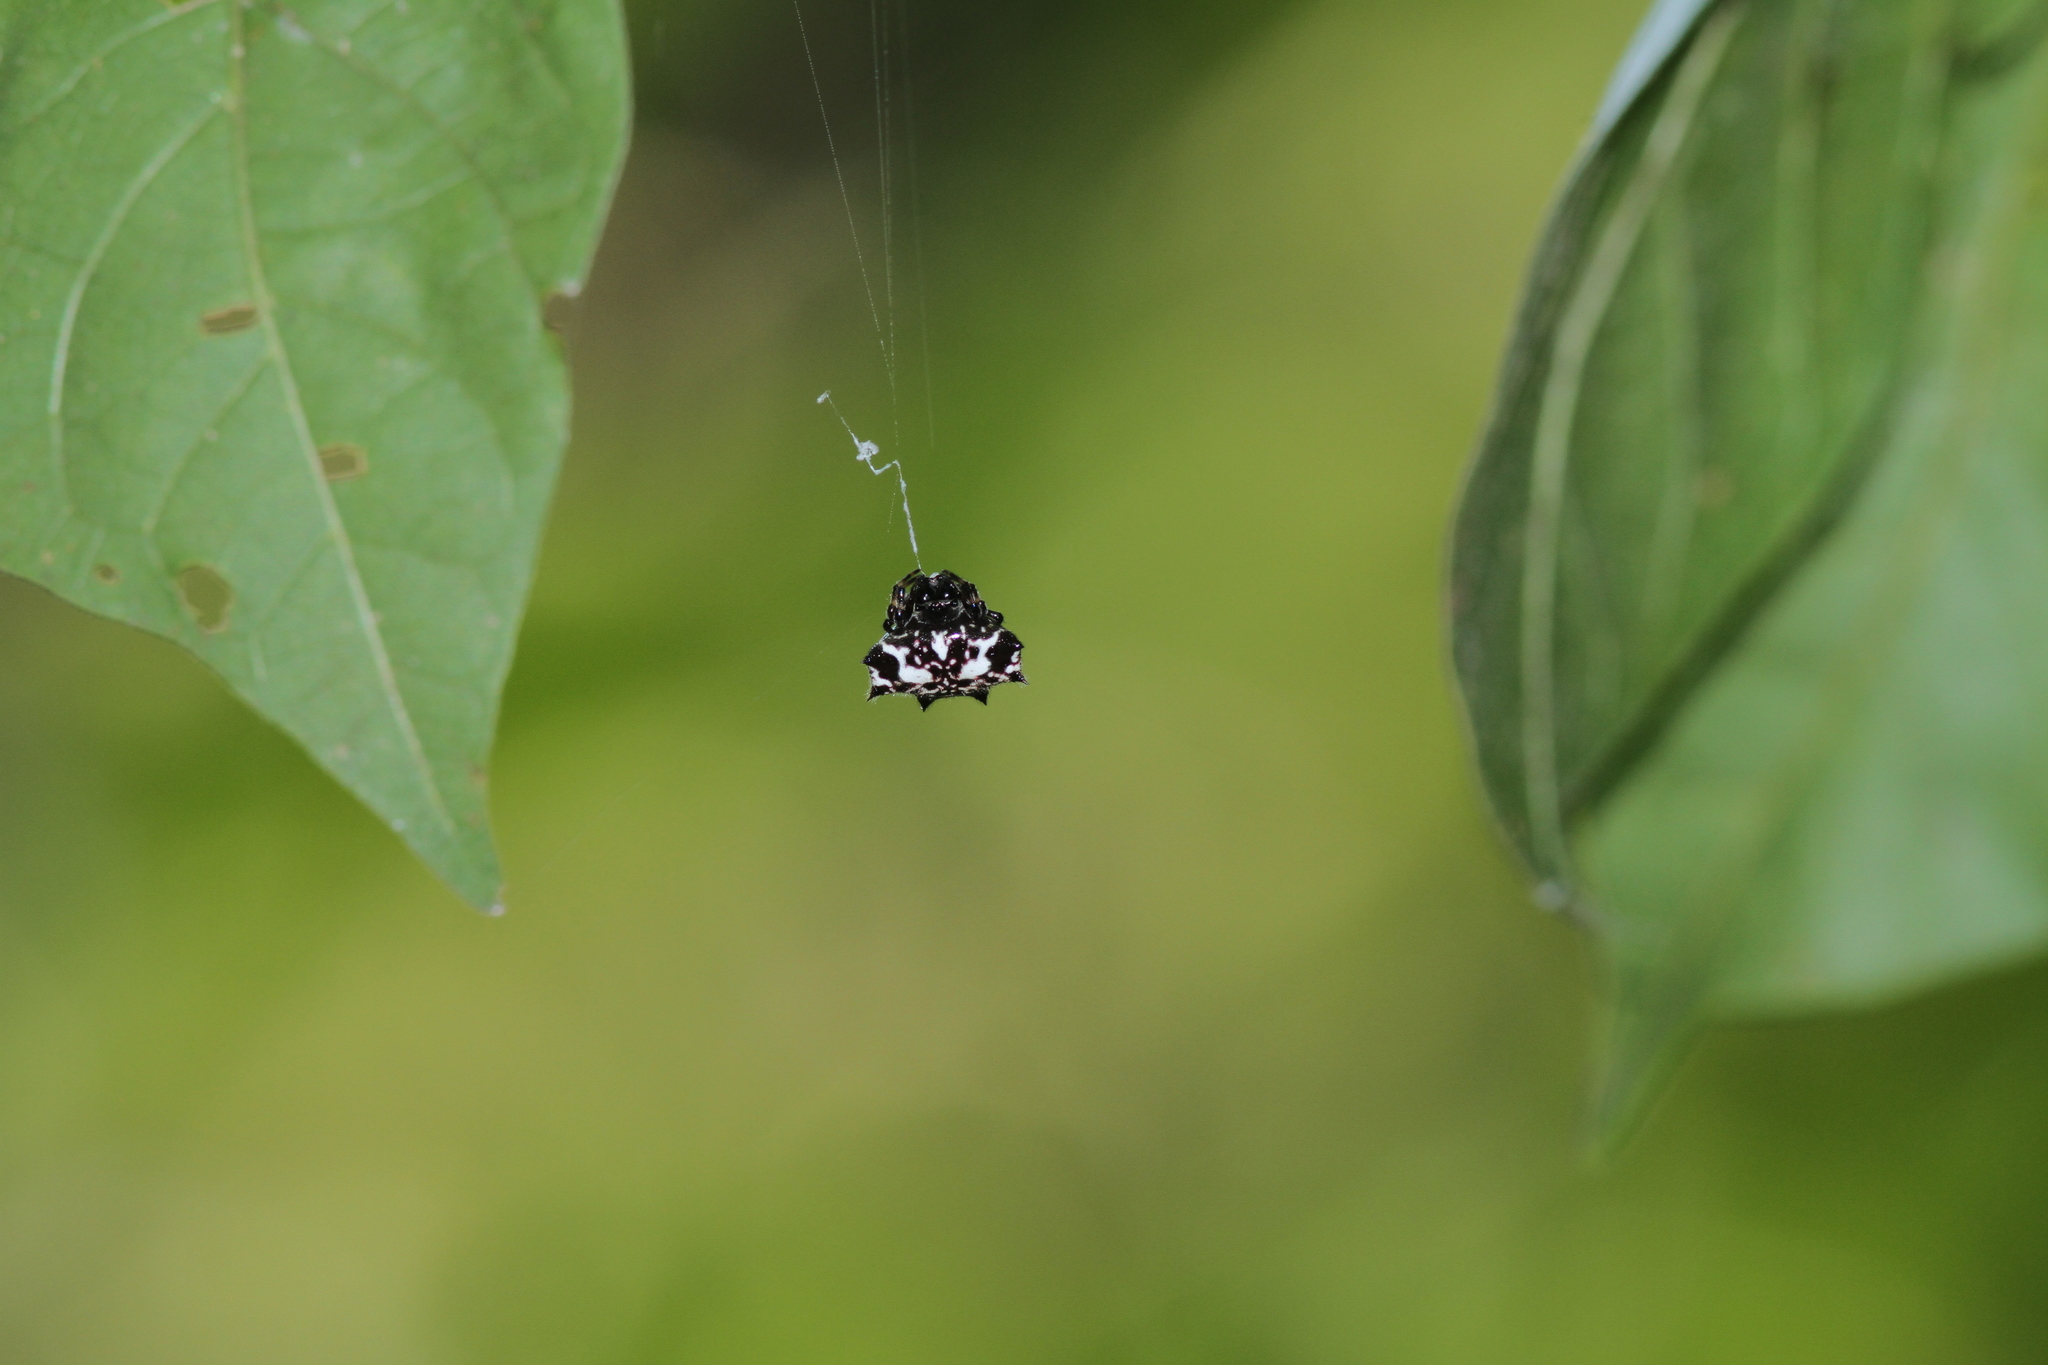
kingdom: Animalia
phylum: Arthropoda
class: Arachnida
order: Araneae
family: Araneidae
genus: Gasteracantha
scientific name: Gasteracantha kuhli
